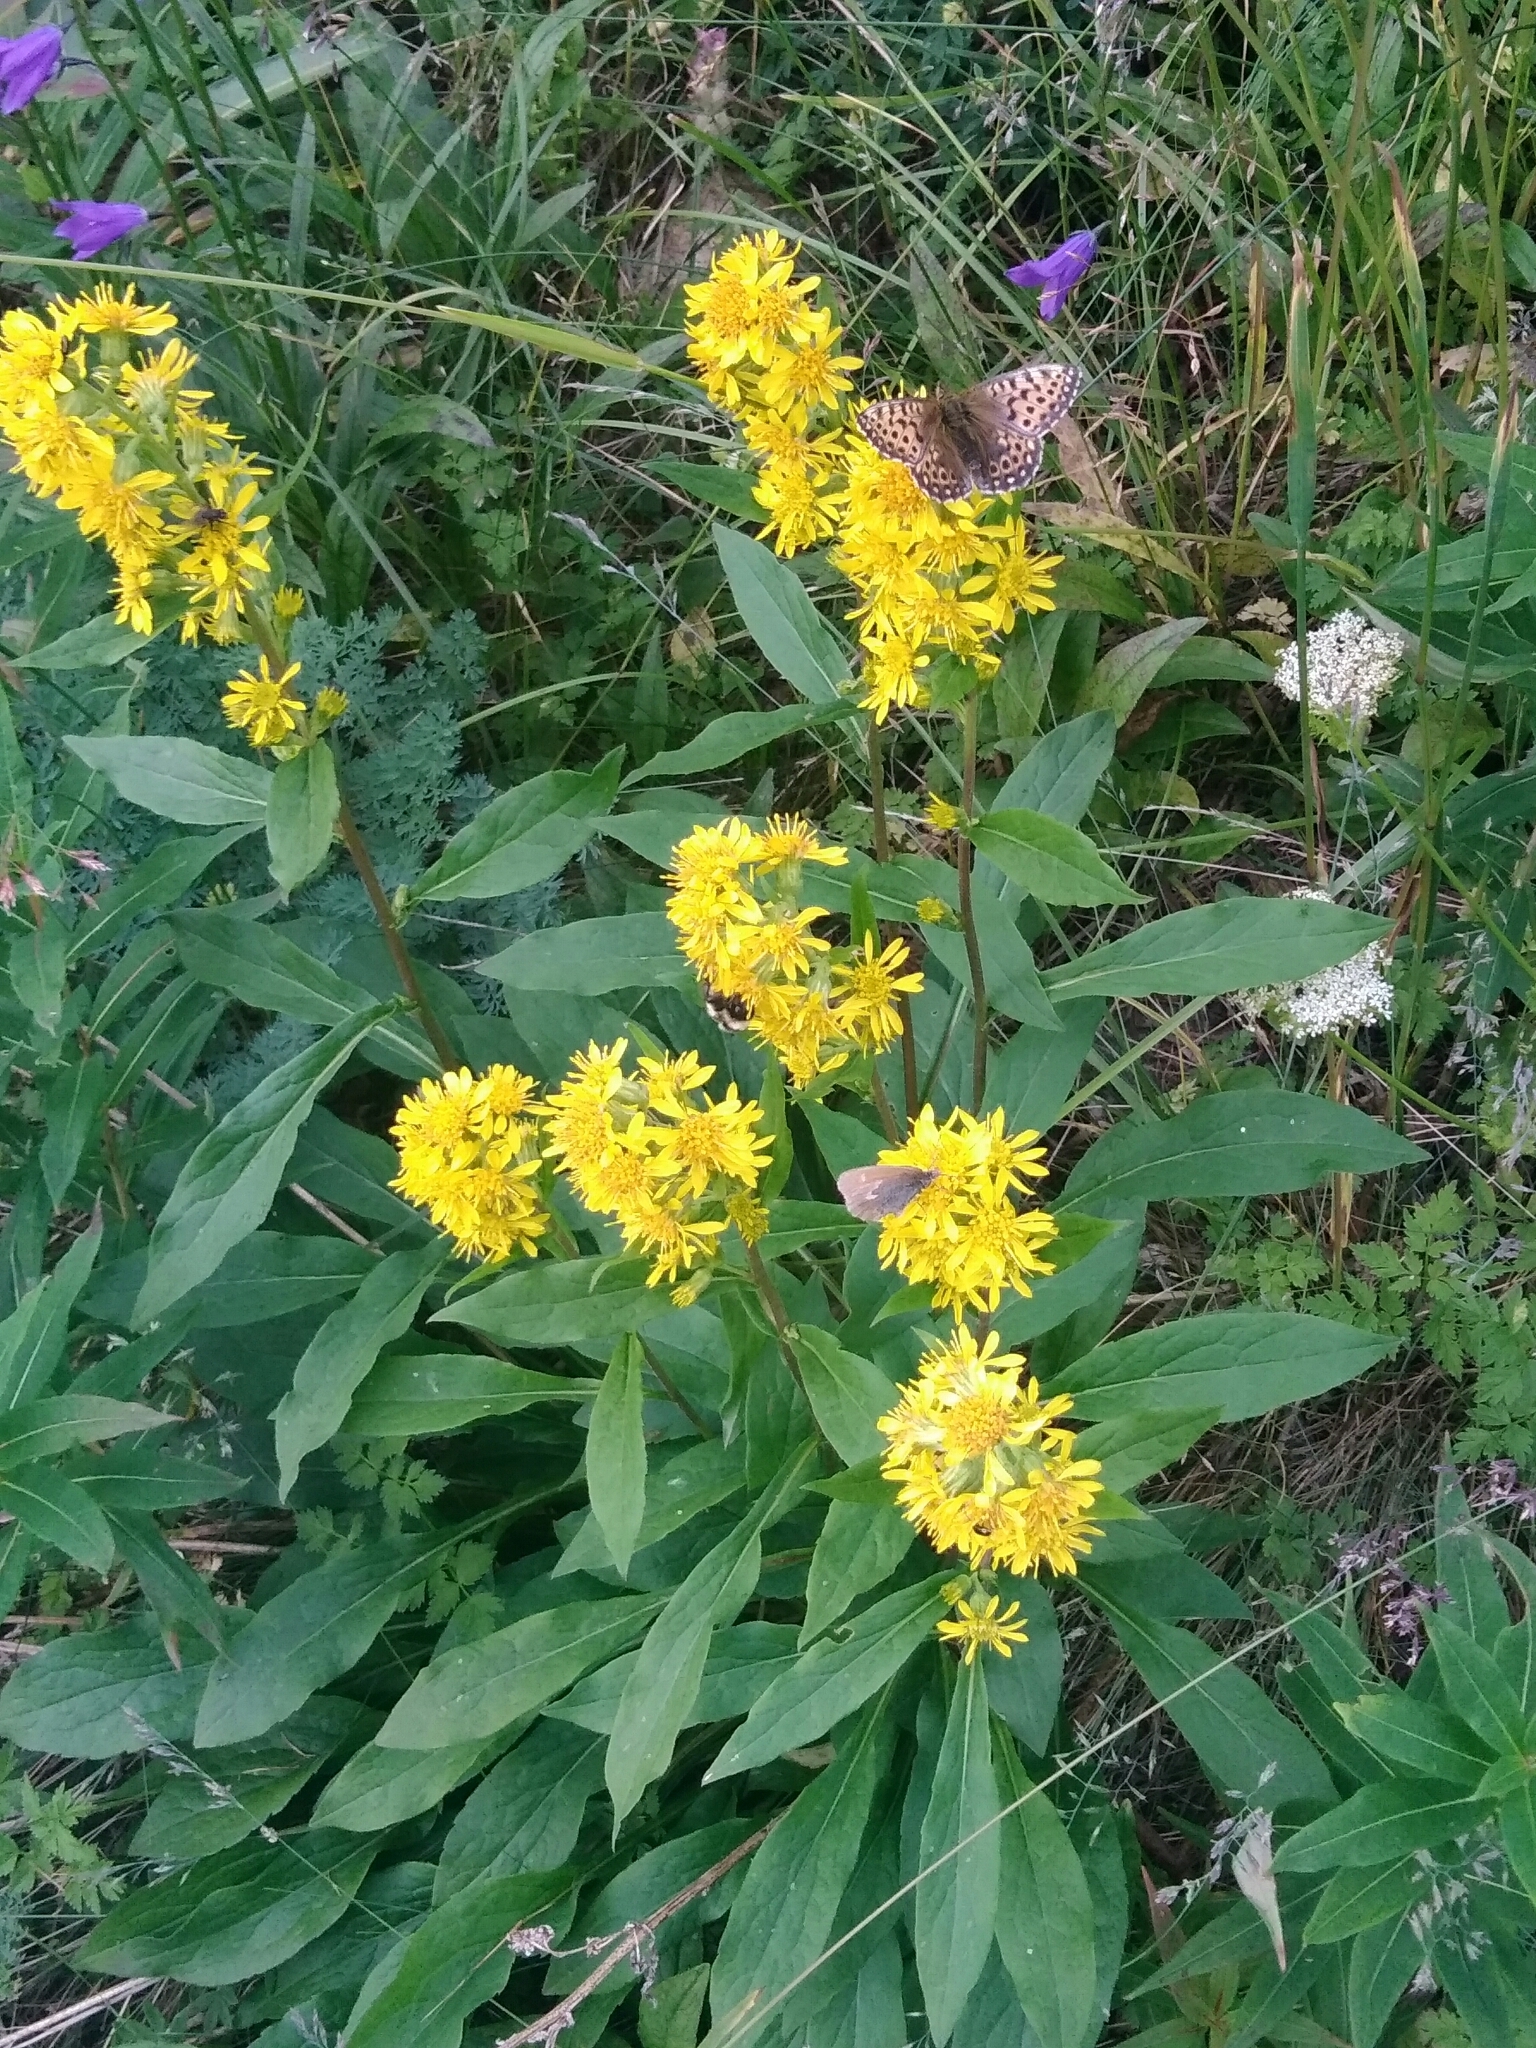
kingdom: Plantae
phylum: Tracheophyta
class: Magnoliopsida
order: Asterales
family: Asteraceae
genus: Solidago
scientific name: Solidago dahurica
